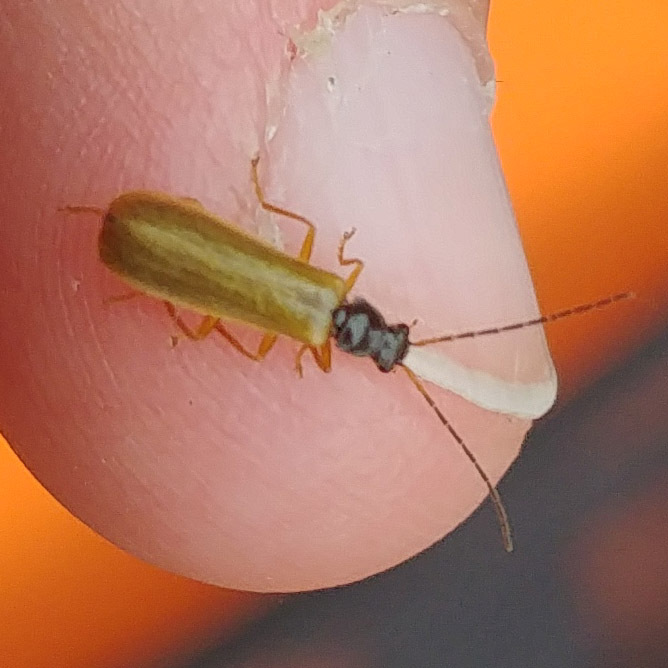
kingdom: Animalia
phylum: Arthropoda
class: Insecta
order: Coleoptera
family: Cantharidae
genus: Rhagonycha
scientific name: Rhagonycha lignosa
